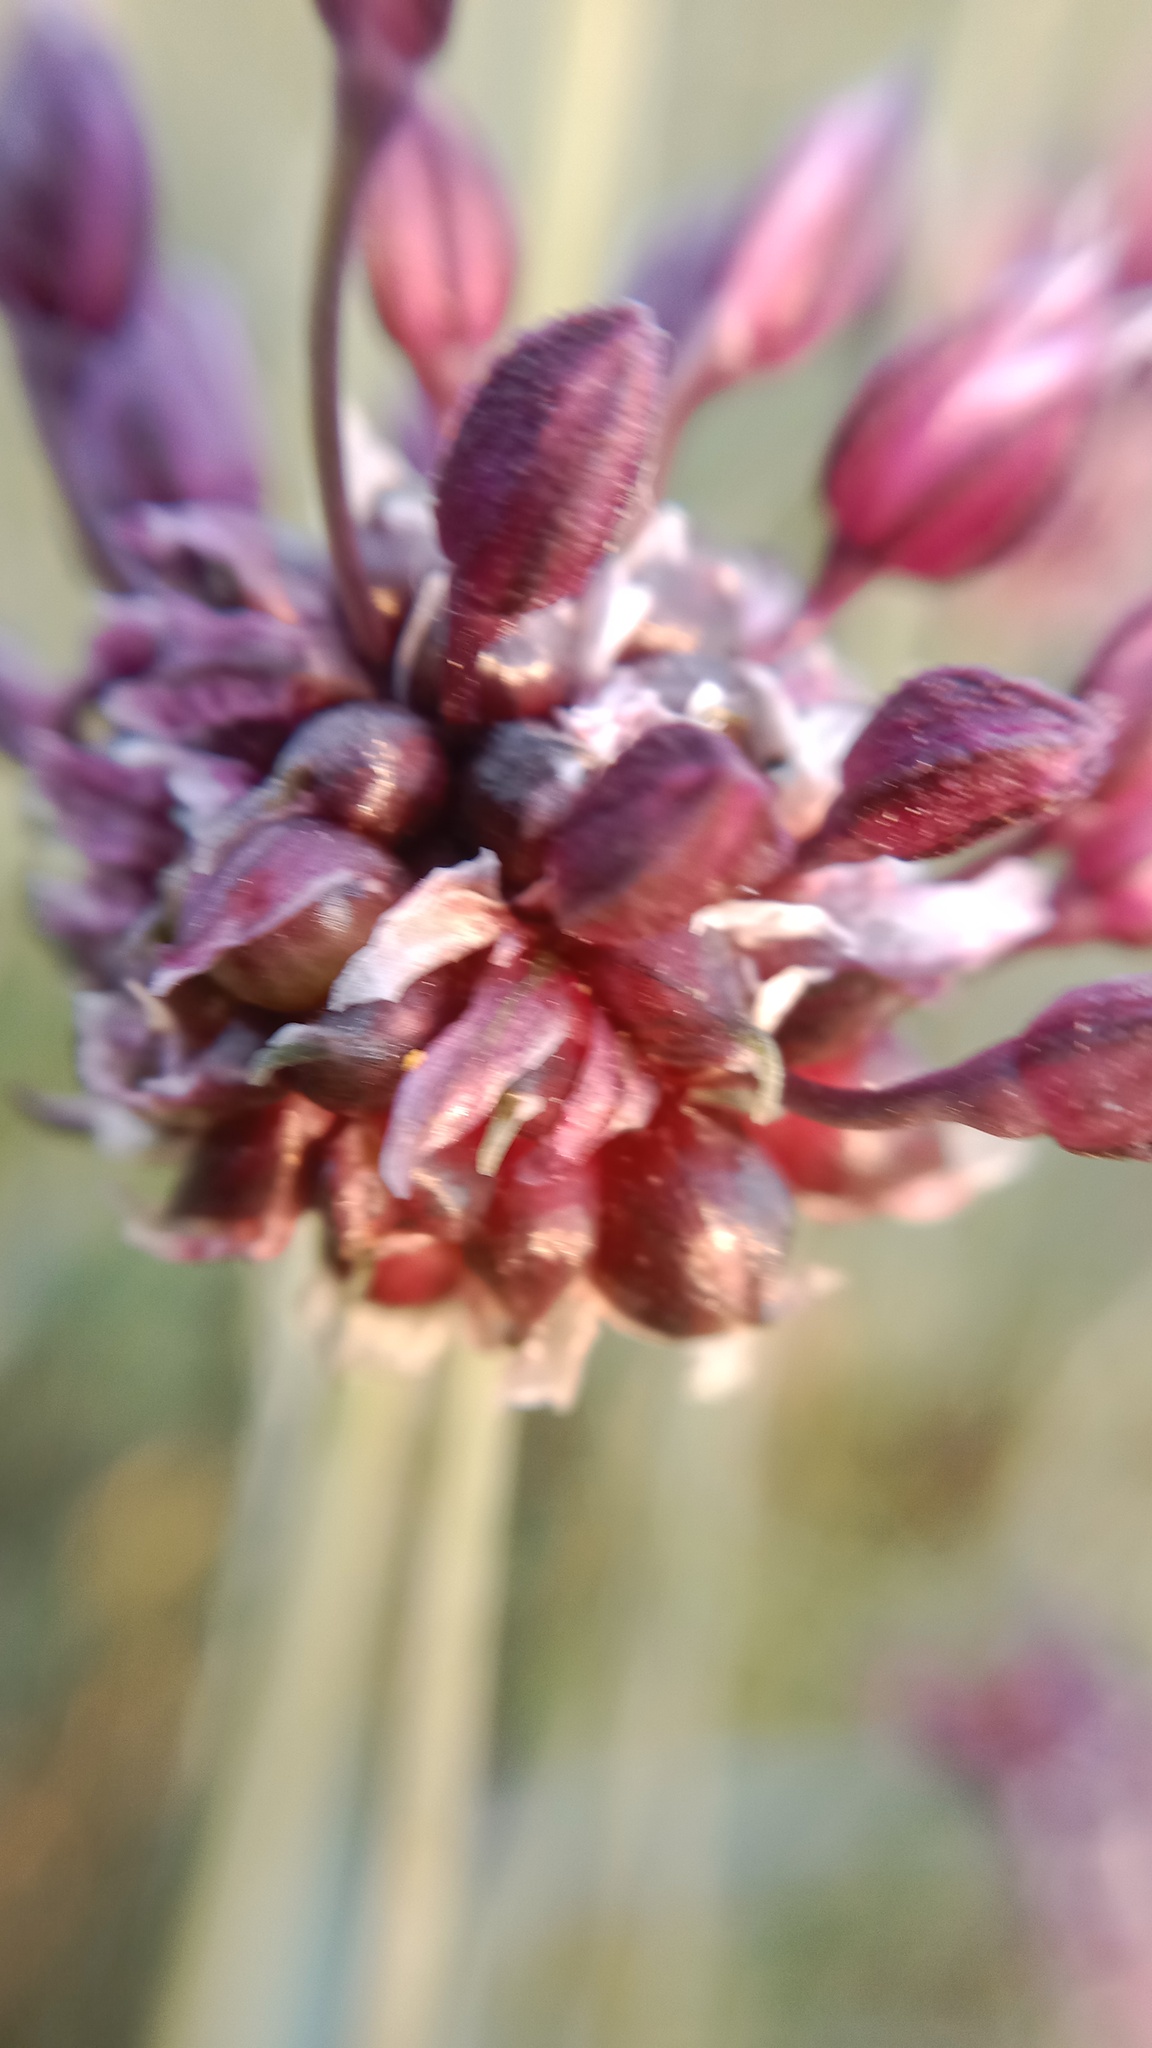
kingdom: Plantae
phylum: Tracheophyta
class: Liliopsida
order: Asparagales
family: Amaryllidaceae
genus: Allium
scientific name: Allium scorodoprasum
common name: Sand leek
